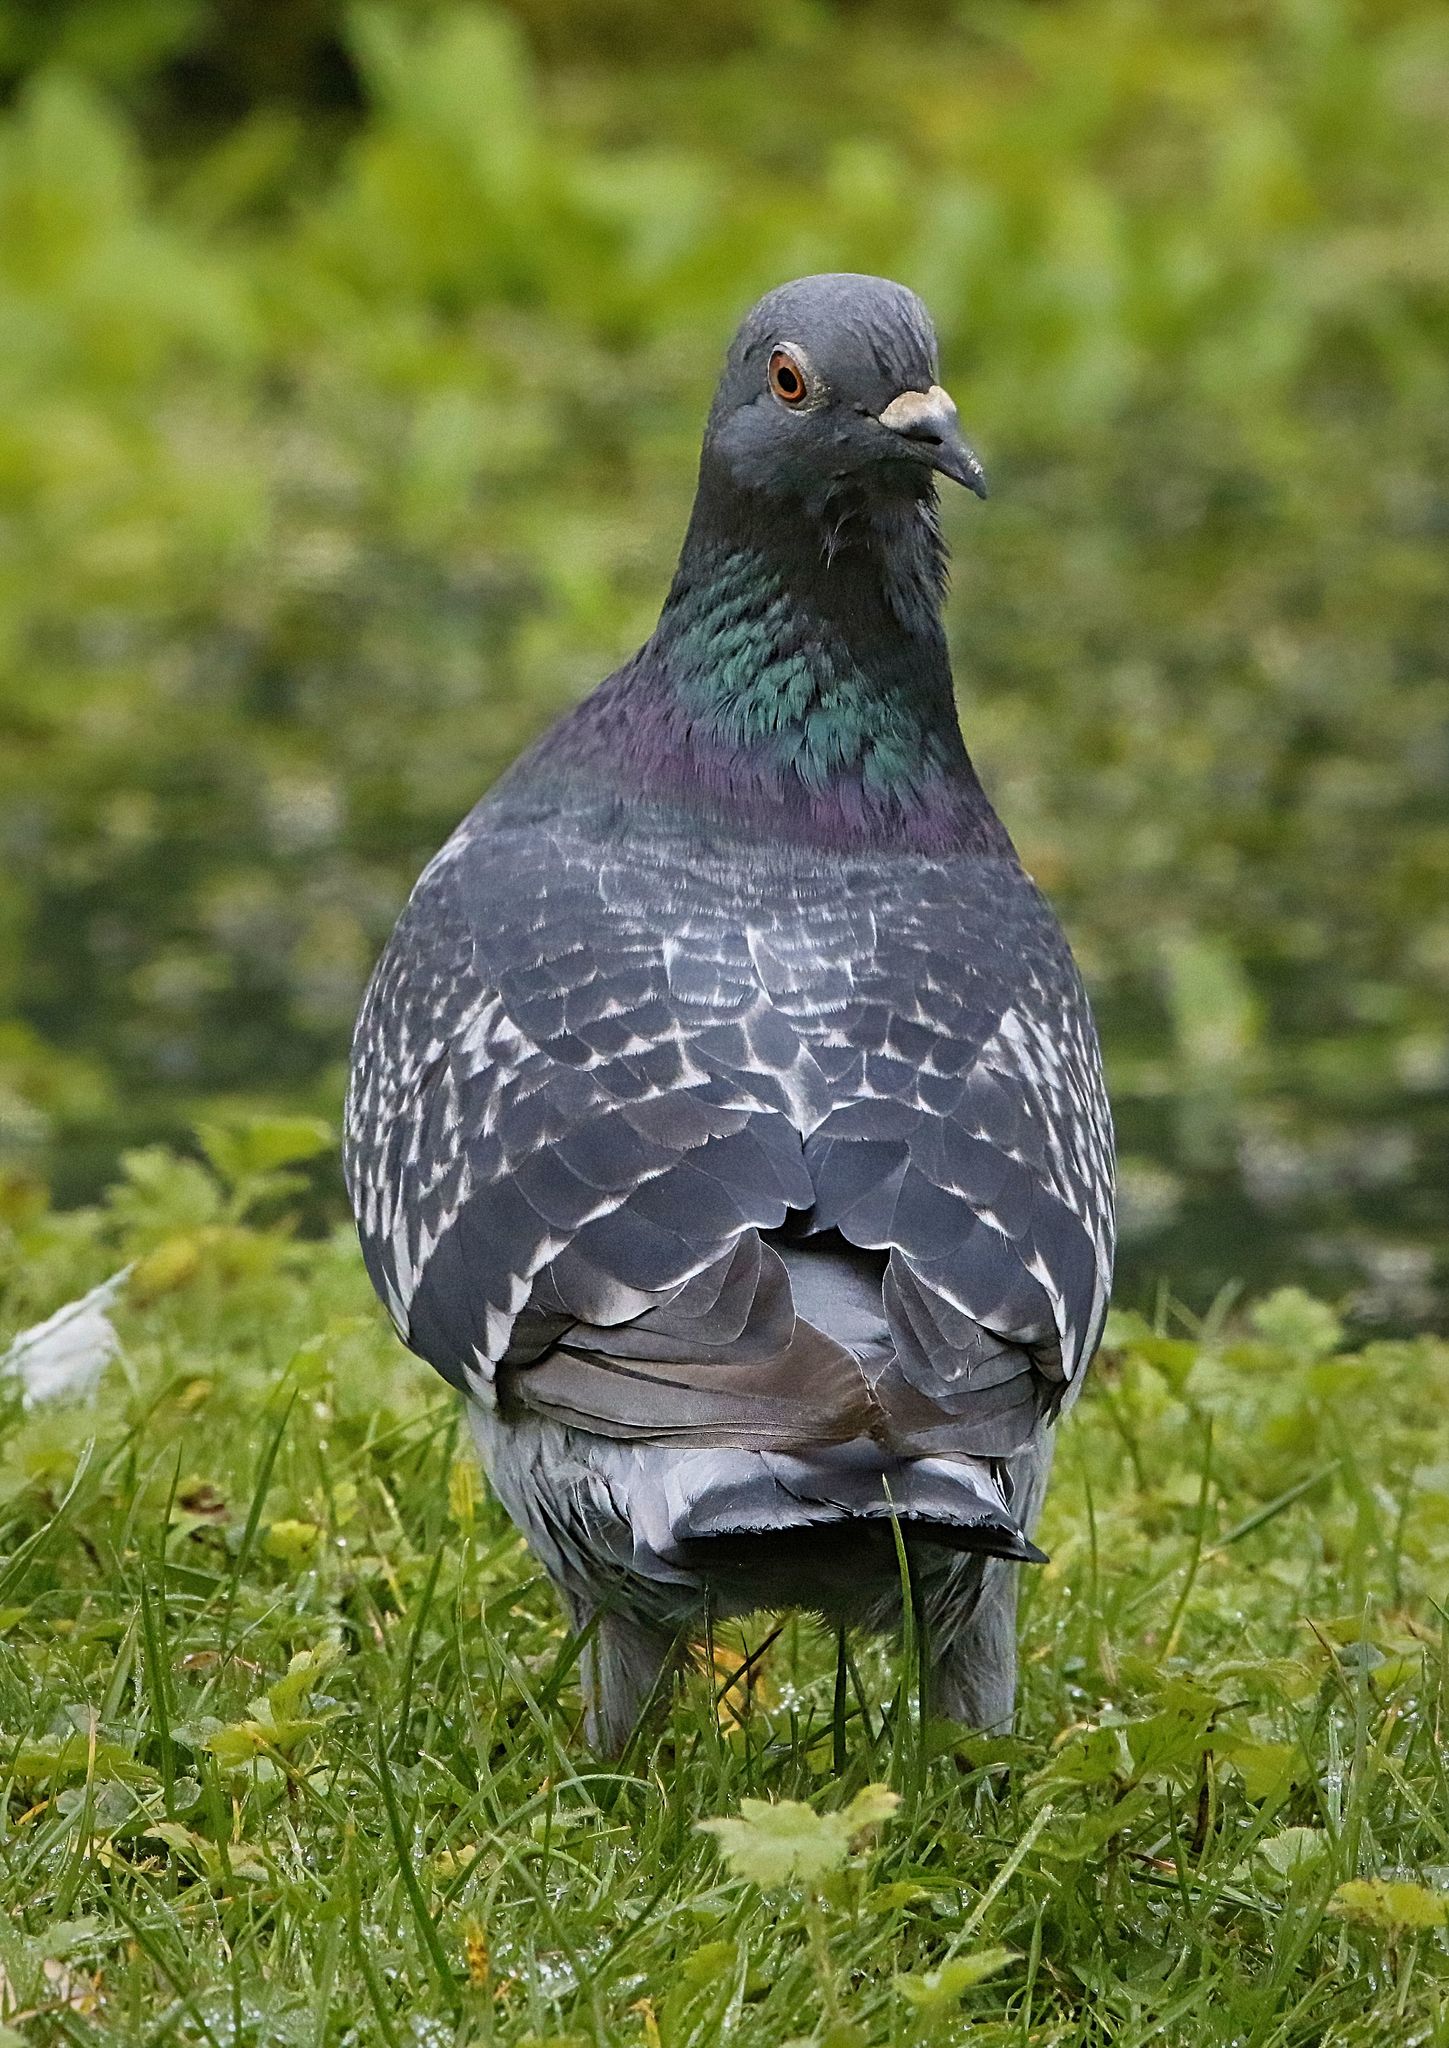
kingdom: Animalia
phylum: Chordata
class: Aves
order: Columbiformes
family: Columbidae
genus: Columba
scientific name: Columba livia
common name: Rock pigeon
